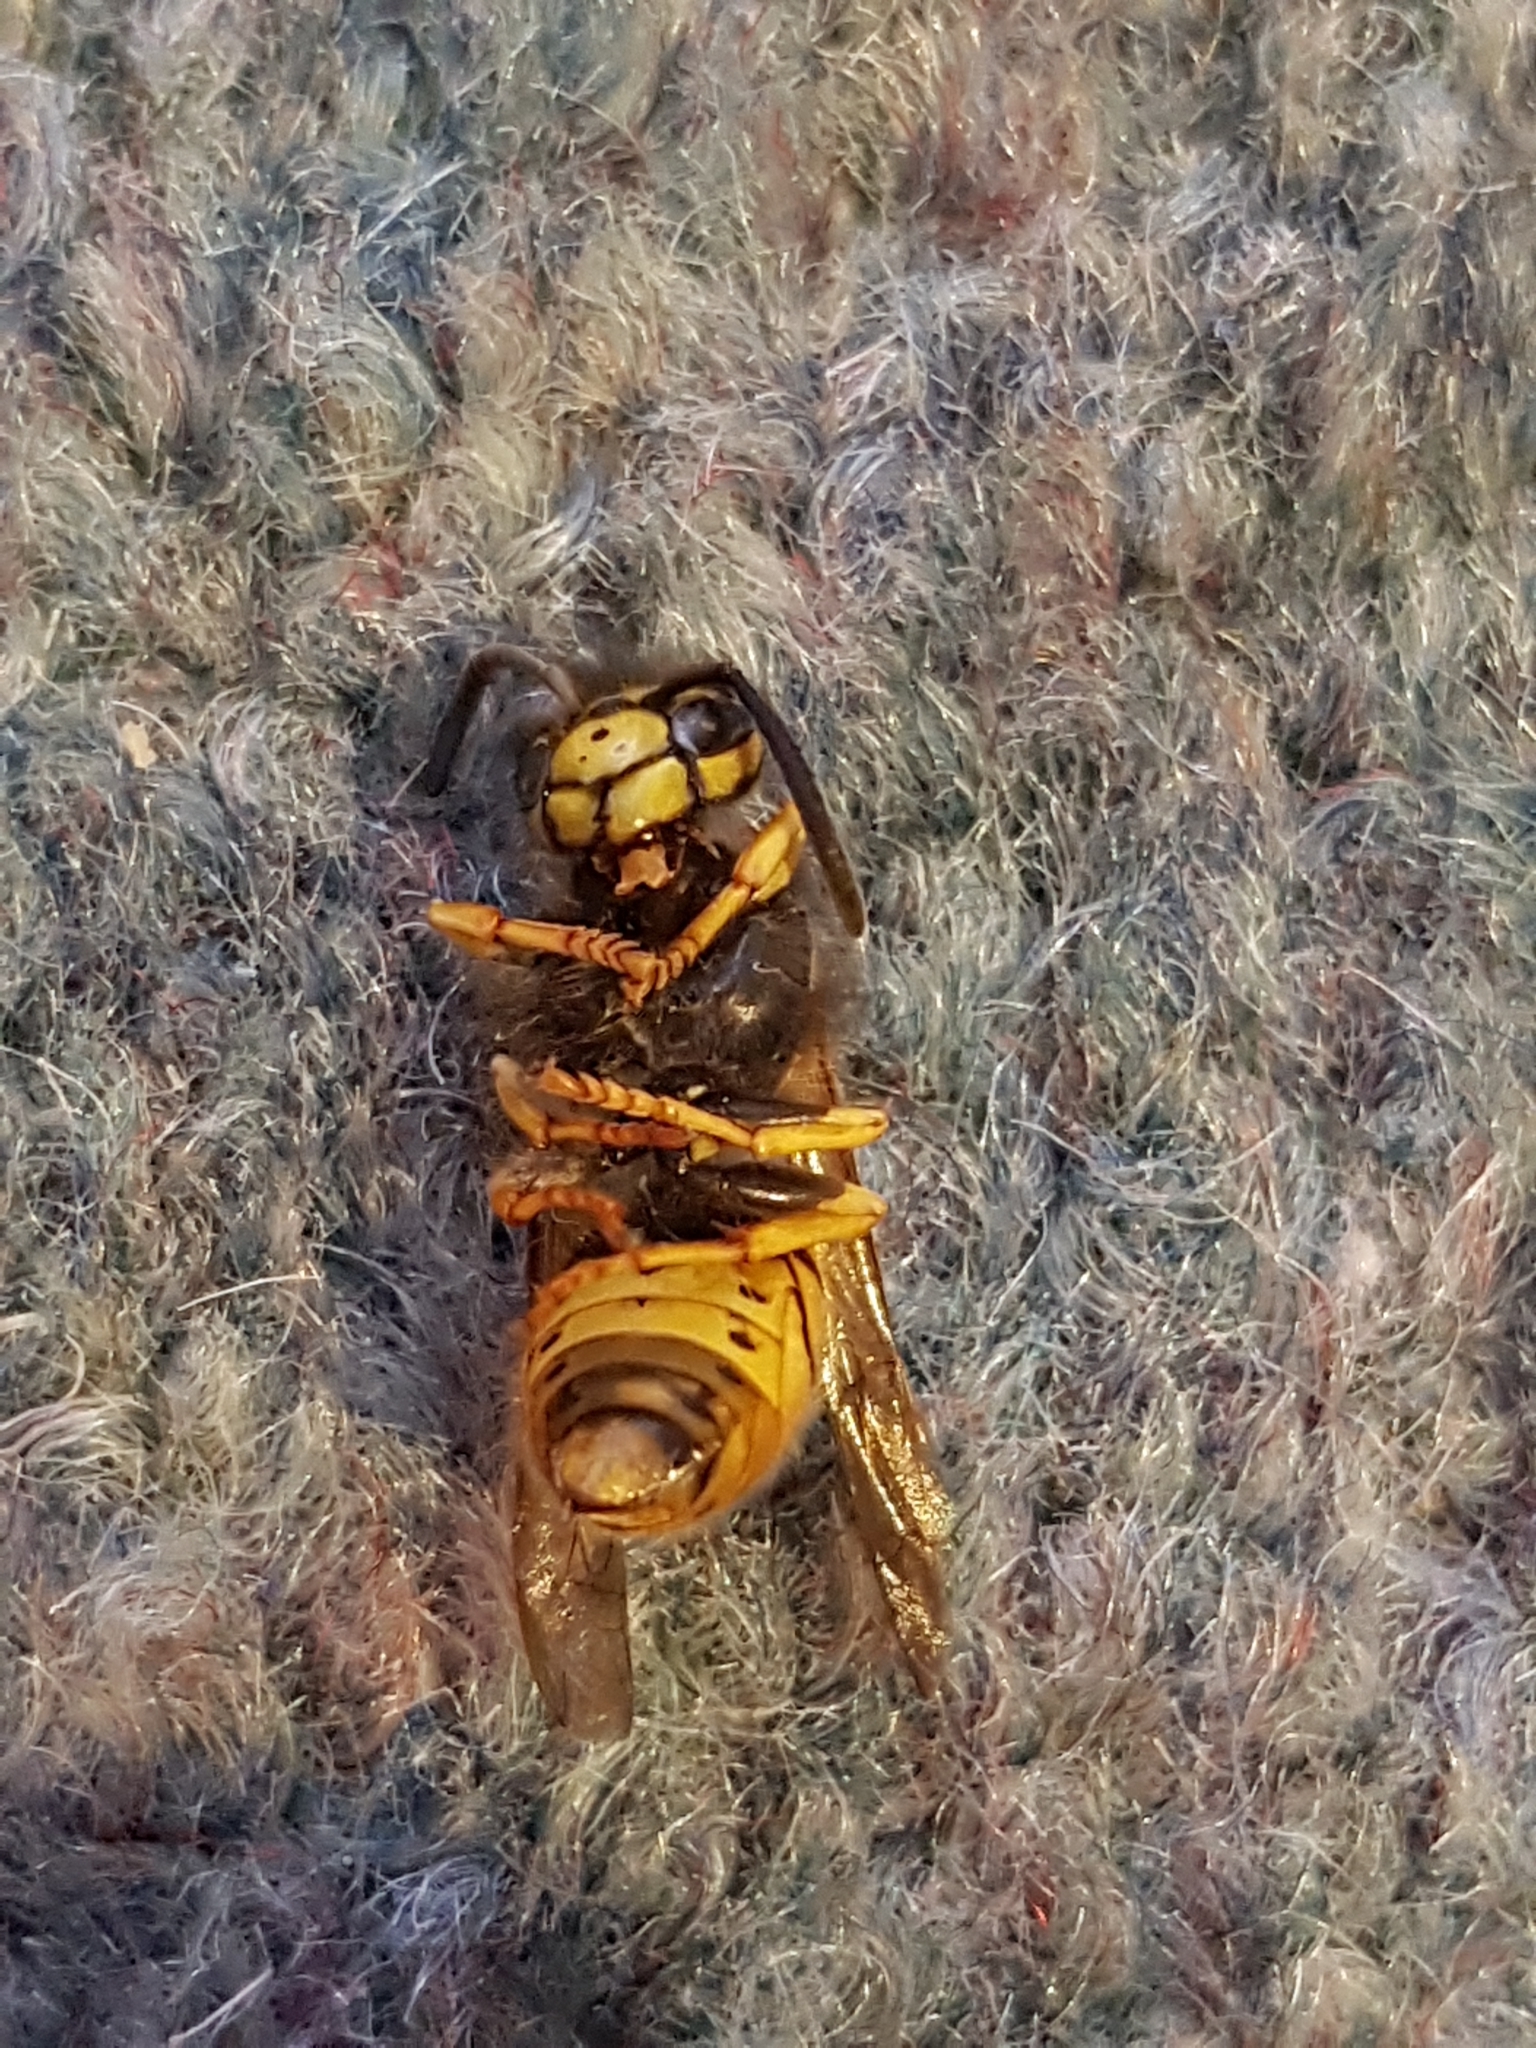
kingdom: Animalia
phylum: Arthropoda
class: Insecta
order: Hymenoptera
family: Vespidae
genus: Vespula
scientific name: Vespula germanica
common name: German wasp
